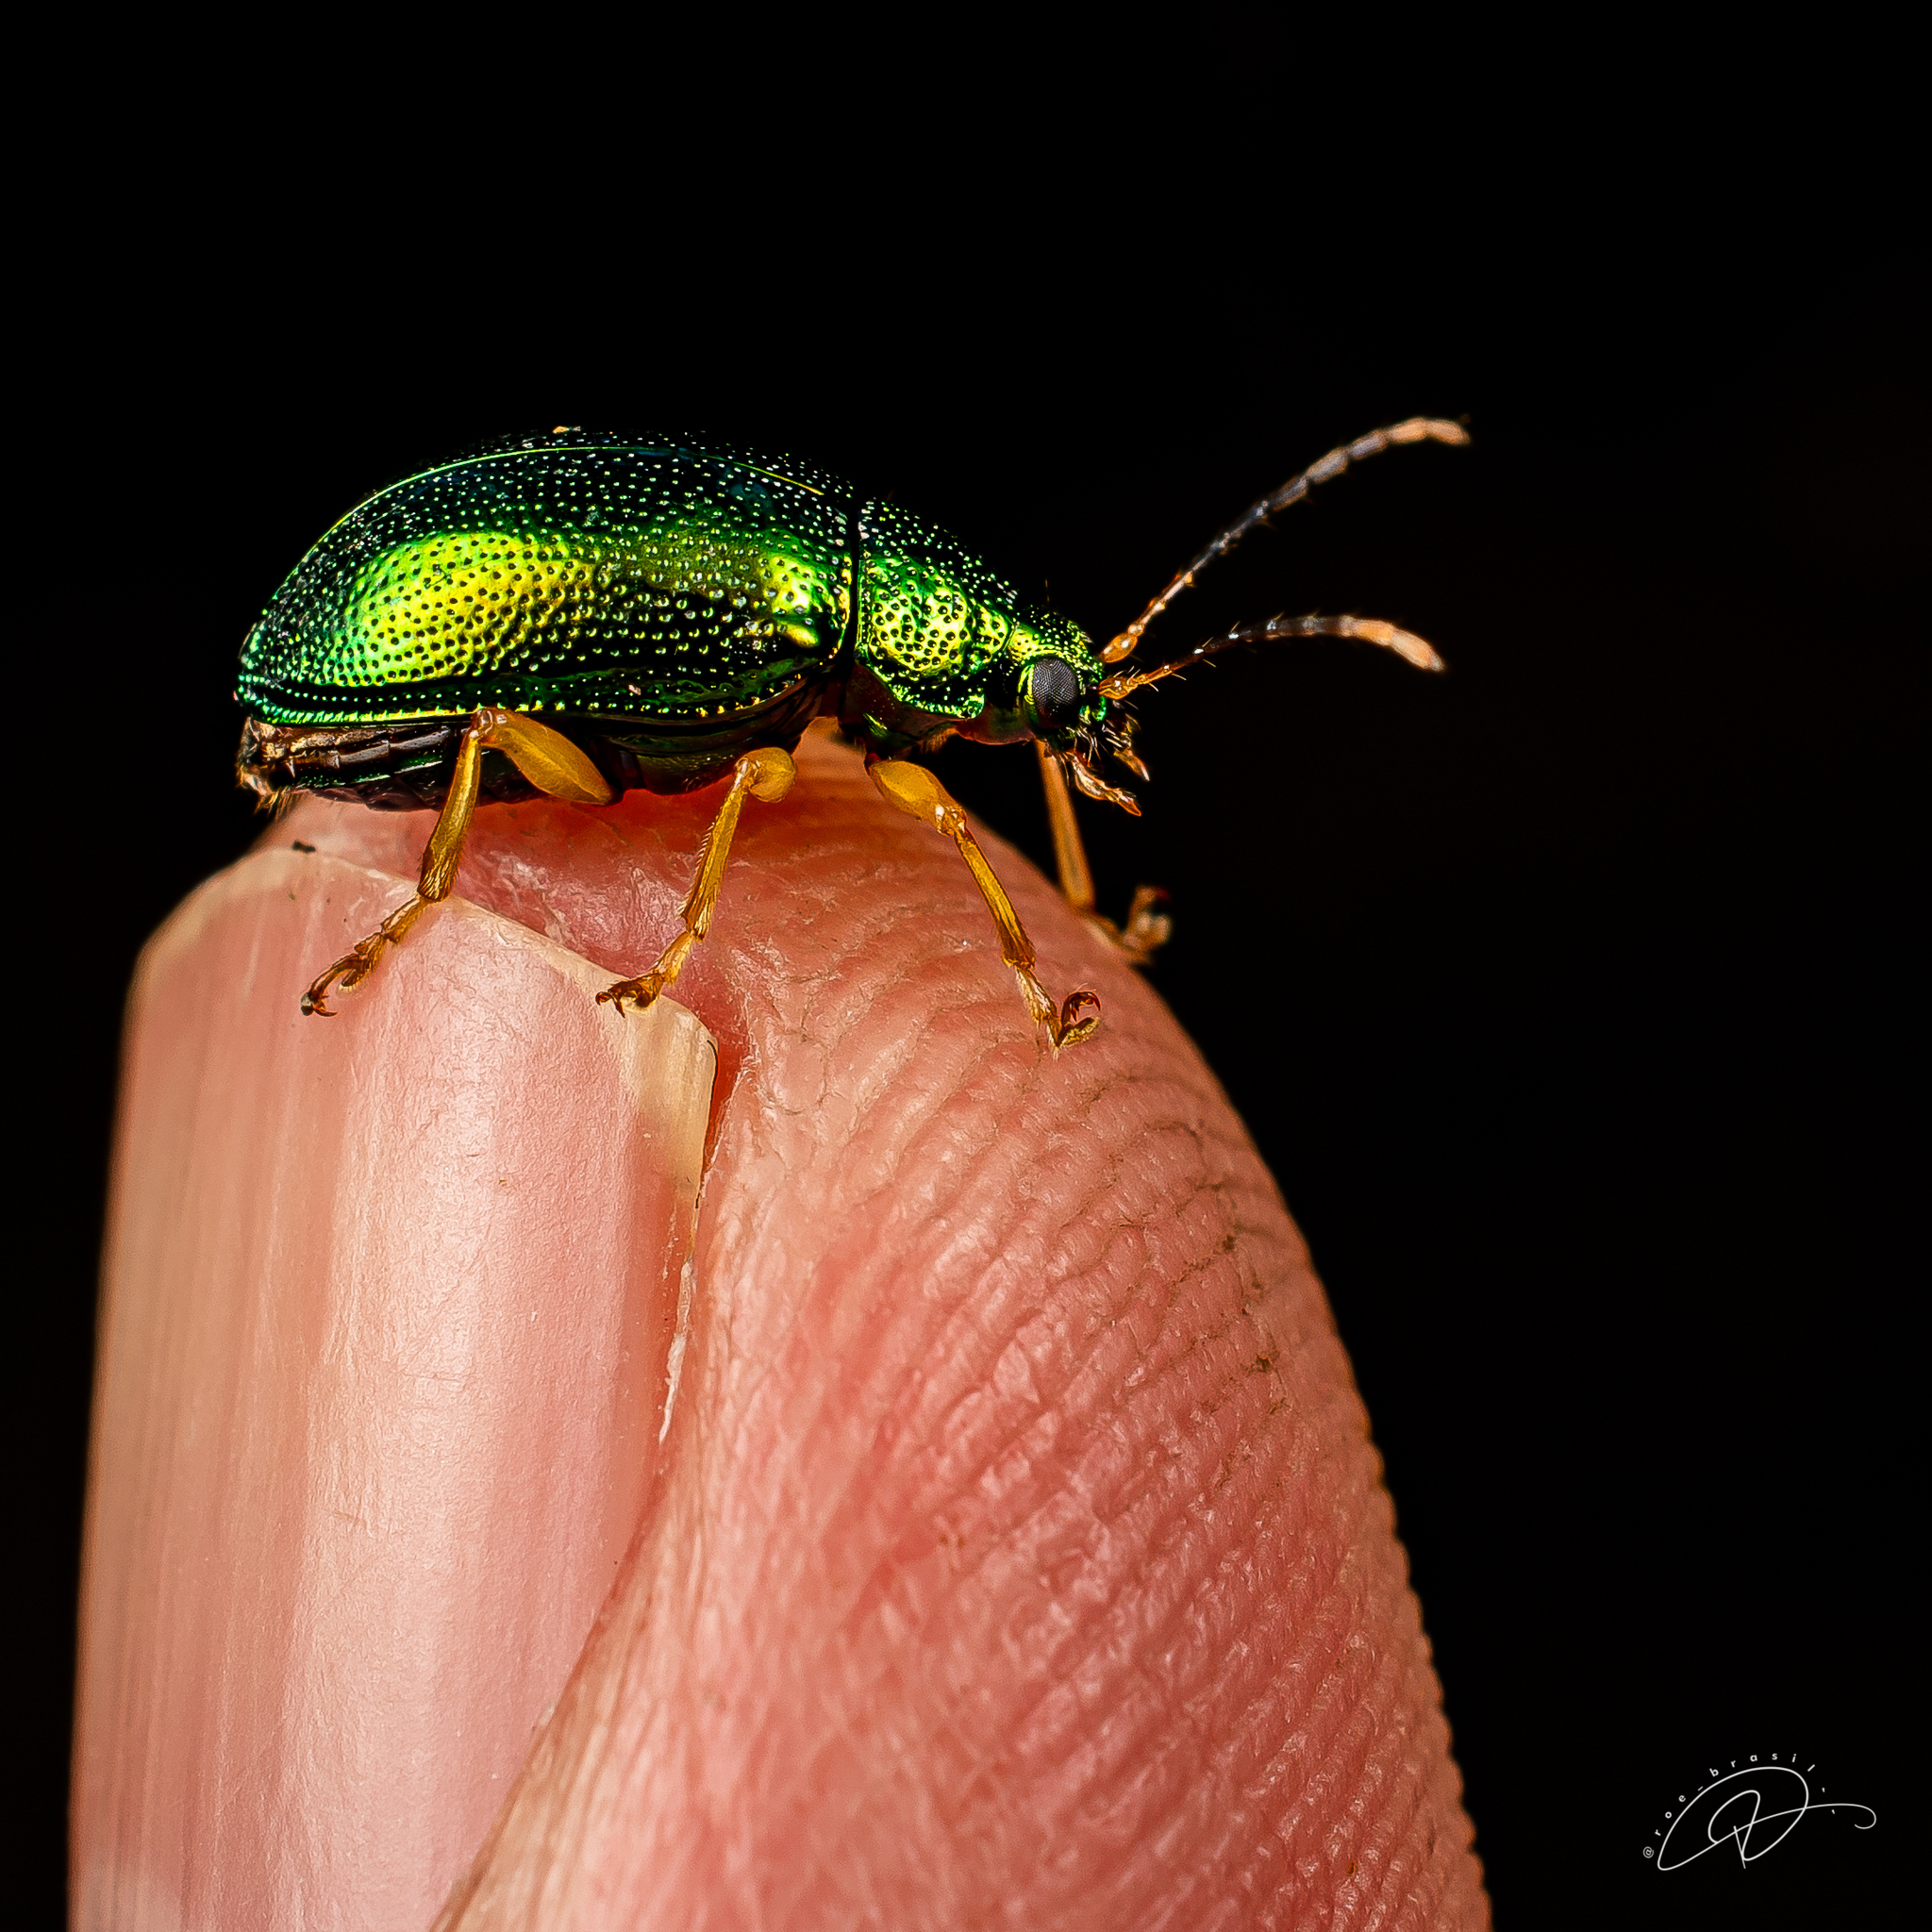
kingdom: Animalia
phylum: Arthropoda
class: Insecta
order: Coleoptera
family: Chrysomelidae
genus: Colaspis
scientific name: Colaspis
